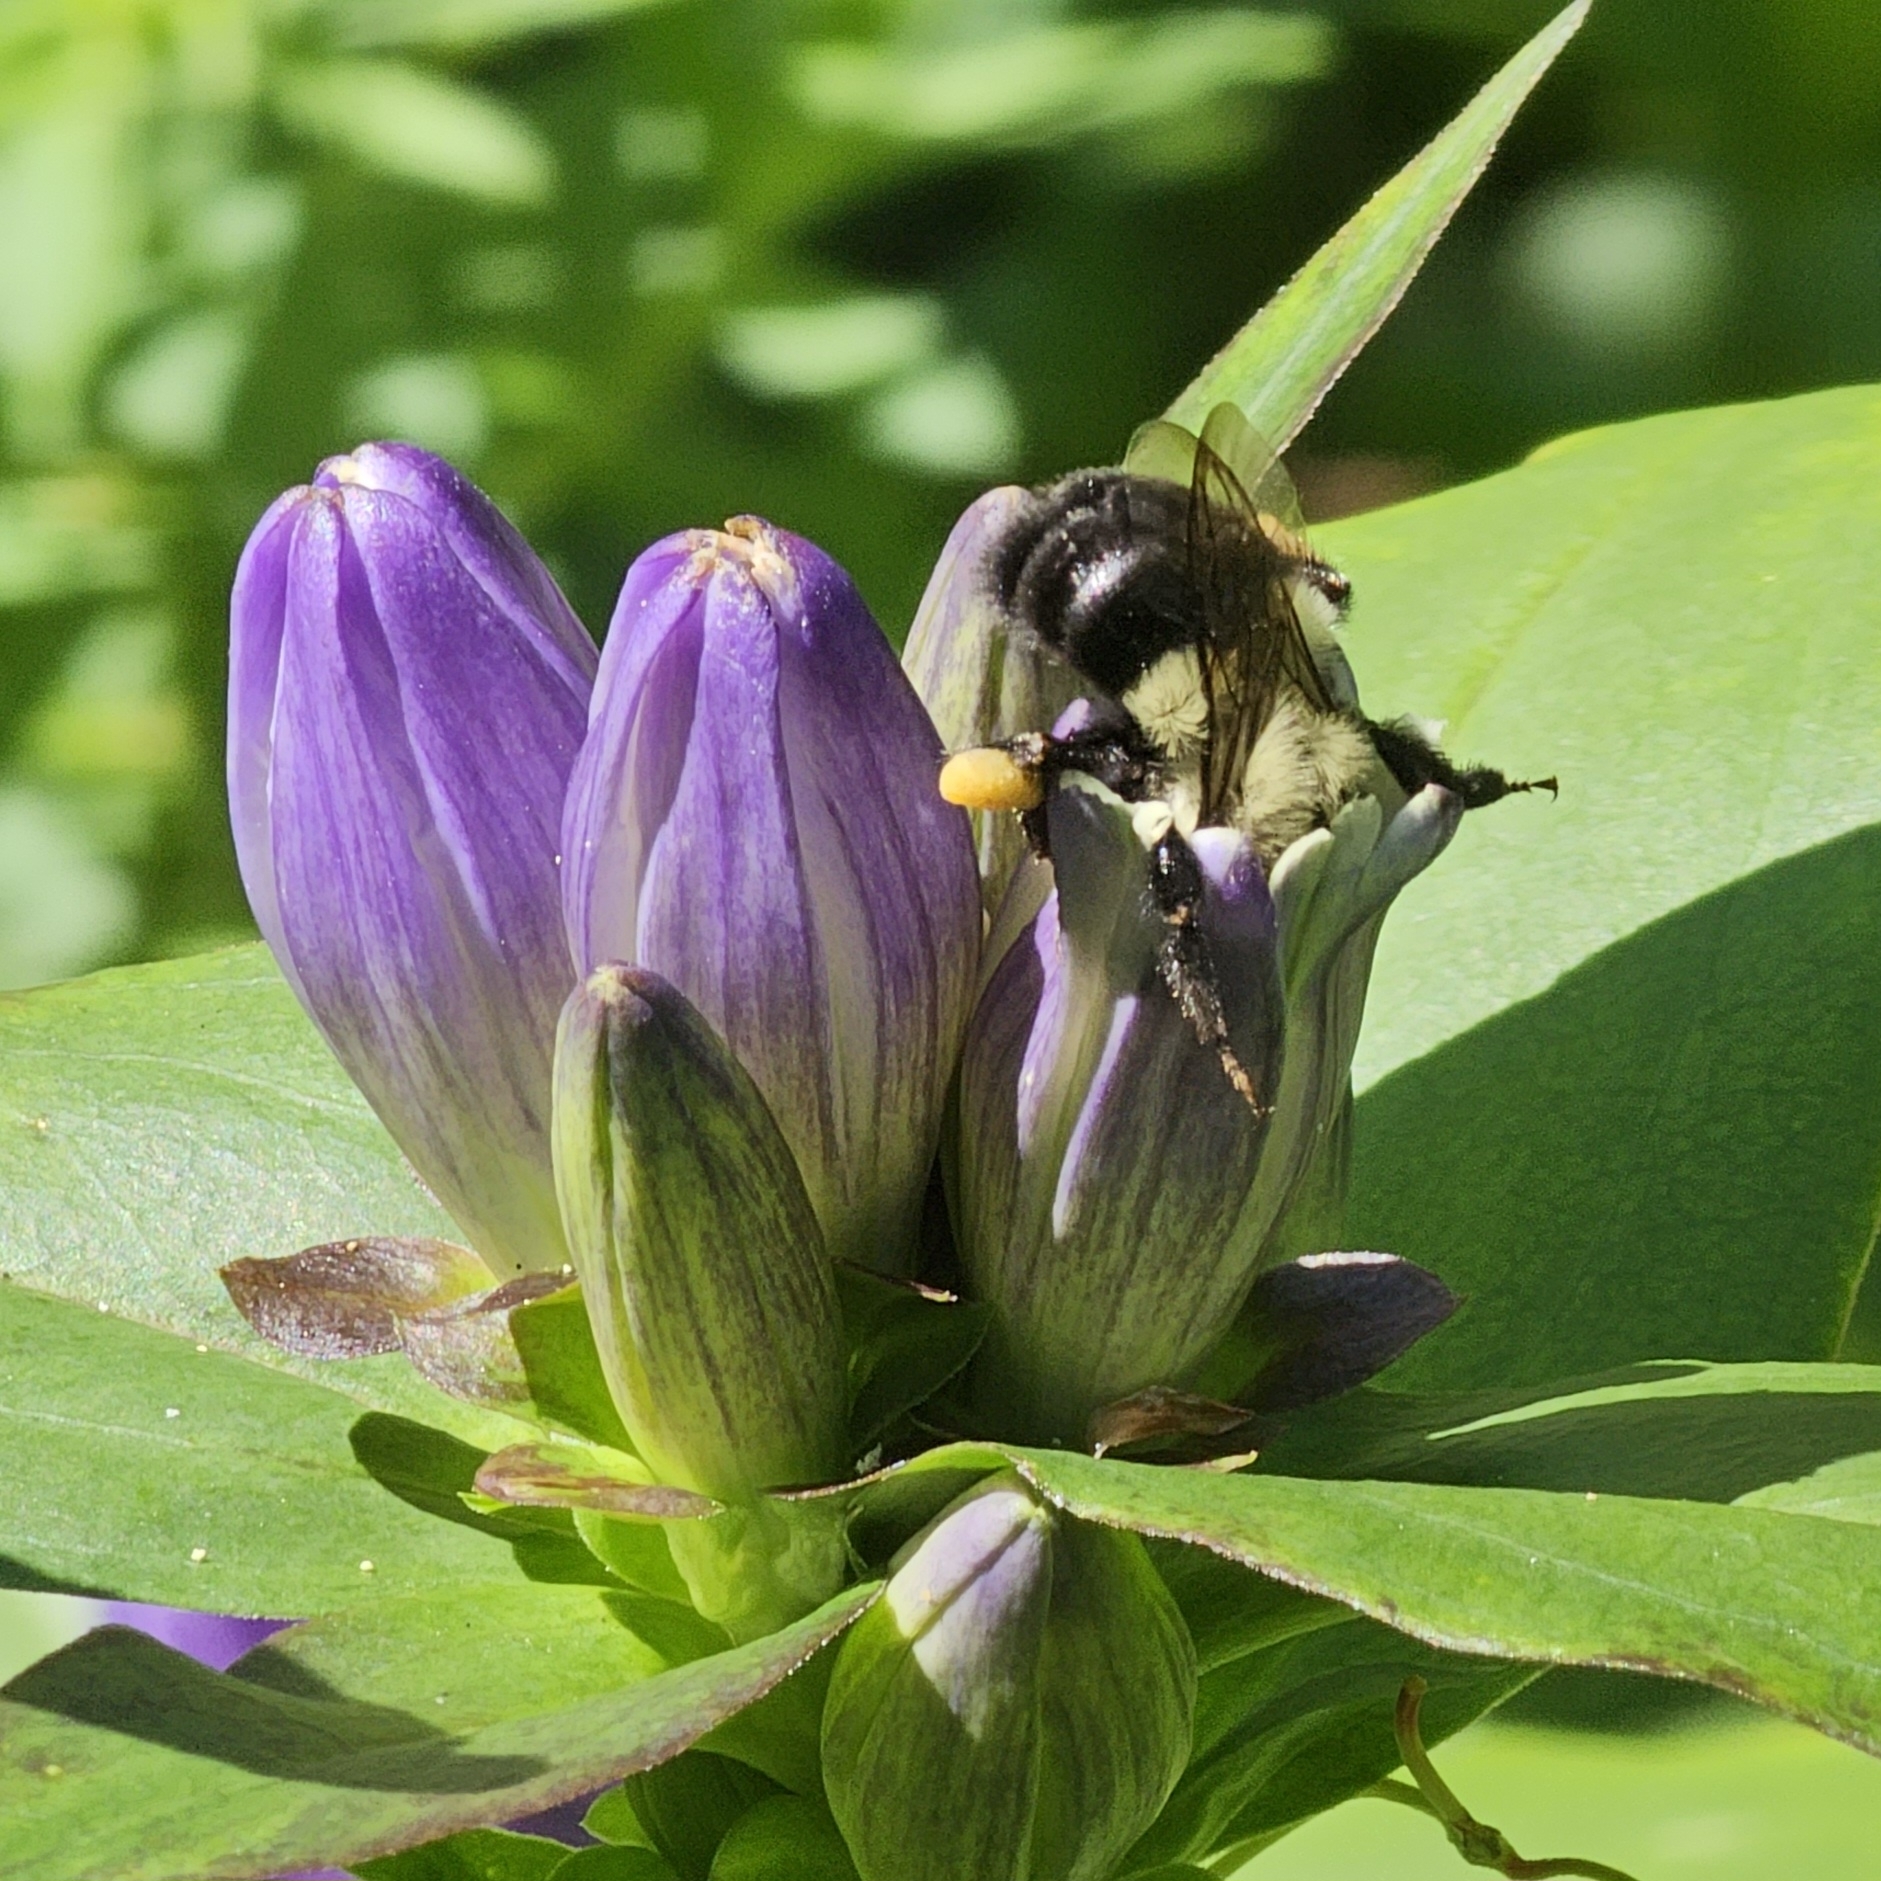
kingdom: Animalia
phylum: Arthropoda
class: Insecta
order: Hymenoptera
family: Apidae
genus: Bombus
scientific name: Bombus impatiens
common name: Common eastern bumble bee
